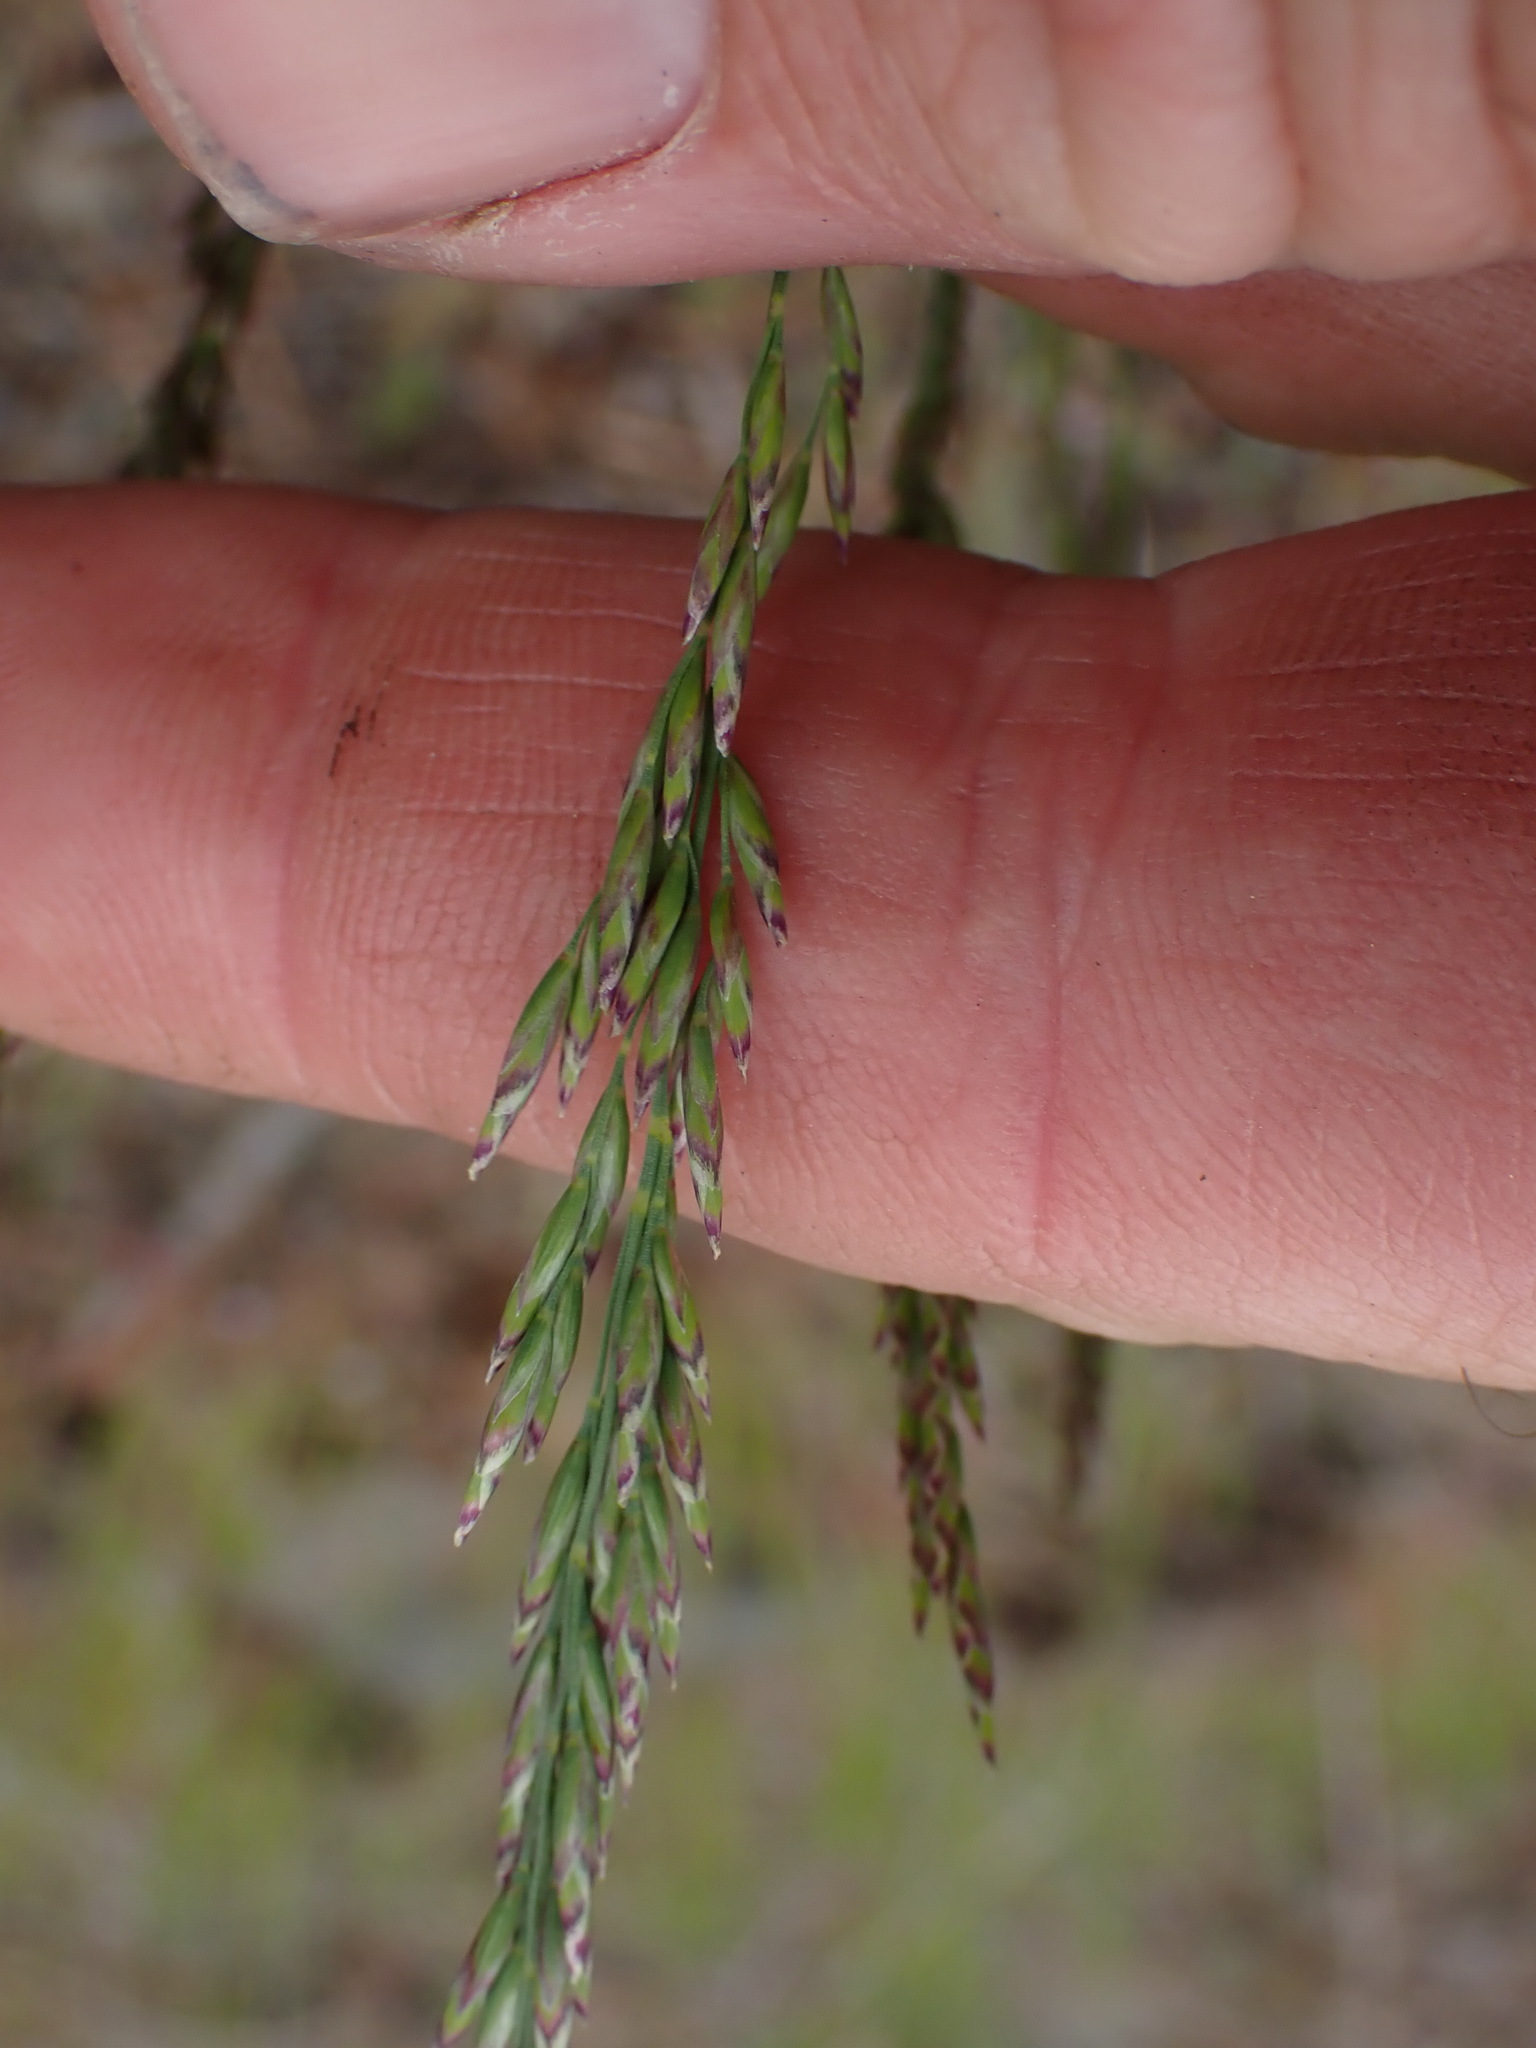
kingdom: Plantae
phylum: Tracheophyta
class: Liliopsida
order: Poales
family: Poaceae
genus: Poa
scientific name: Poa secunda
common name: Sandberg bluegrass
